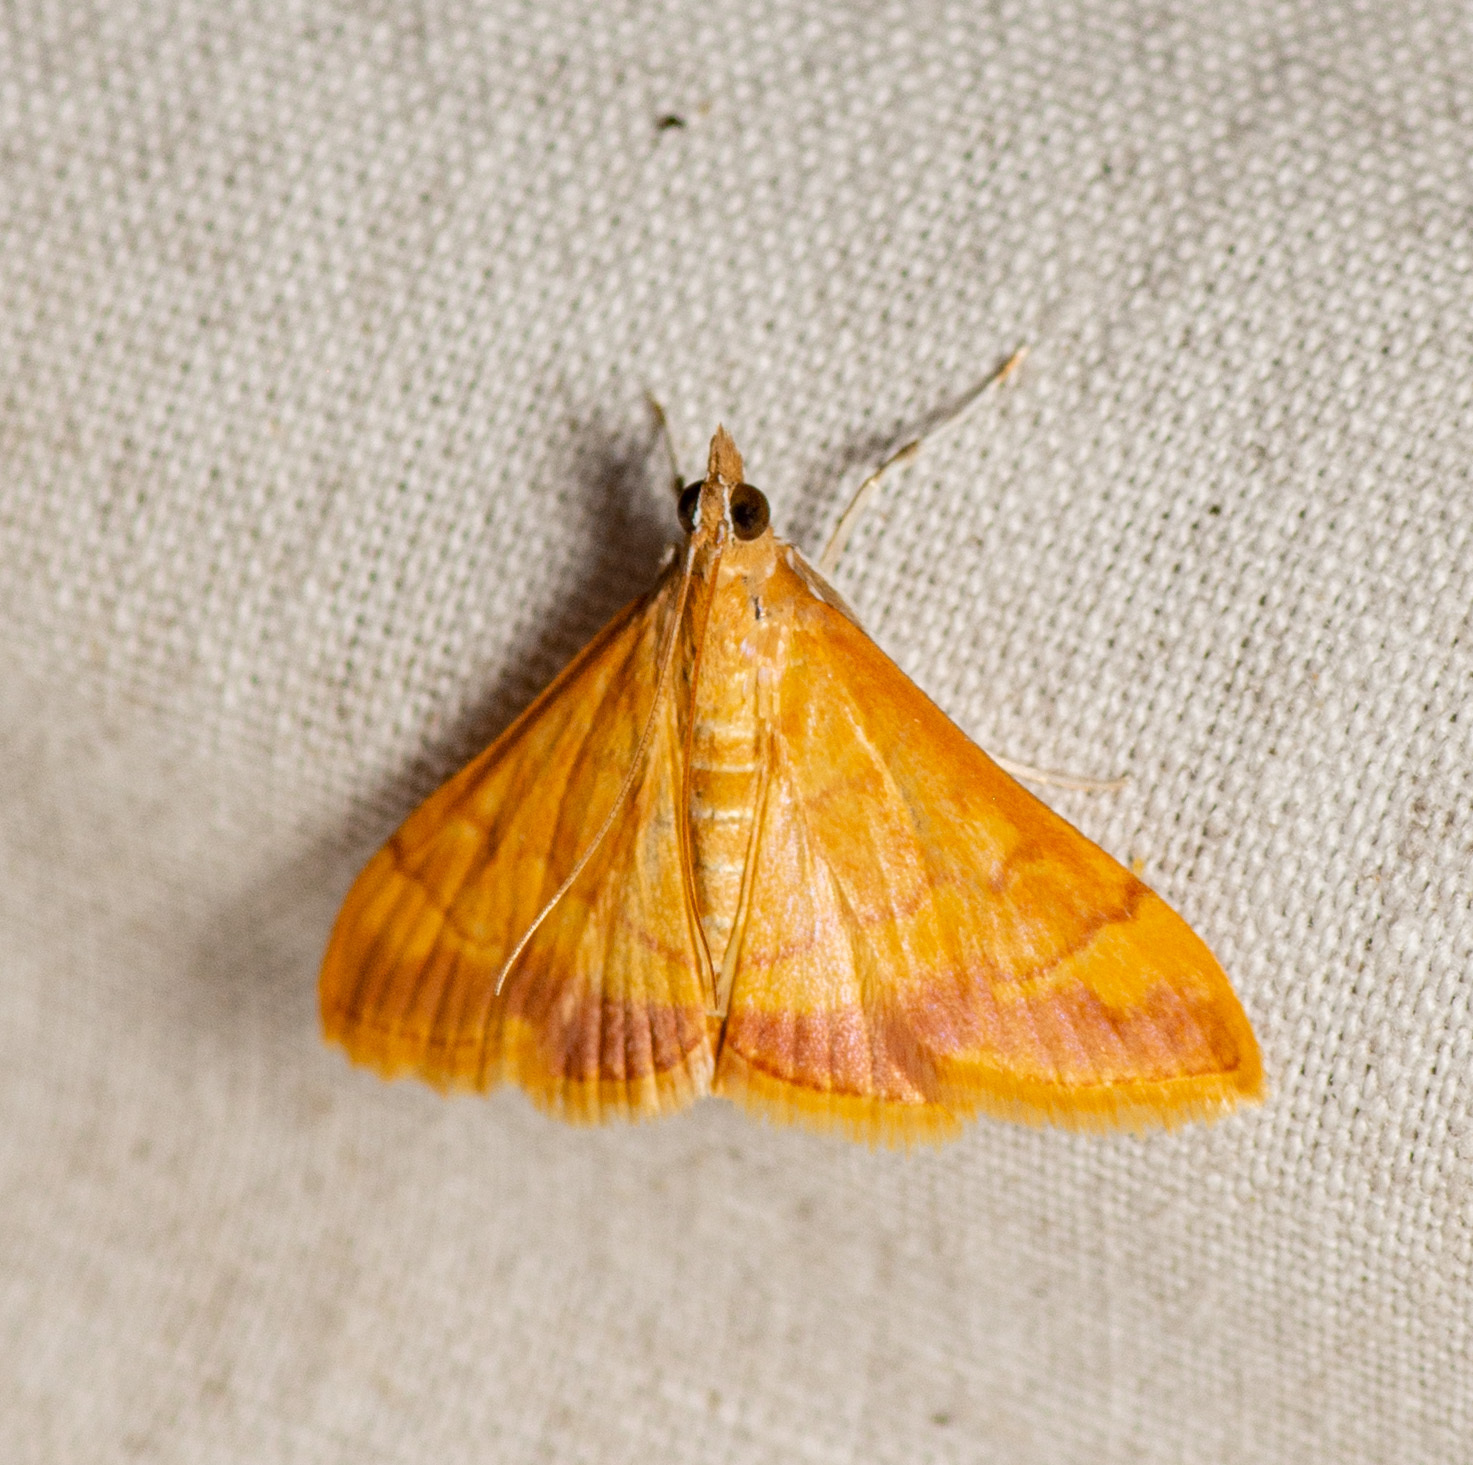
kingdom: Animalia
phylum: Arthropoda
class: Insecta
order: Lepidoptera
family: Crambidae
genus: Pyrausta
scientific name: Pyrausta pseudonythesalis
